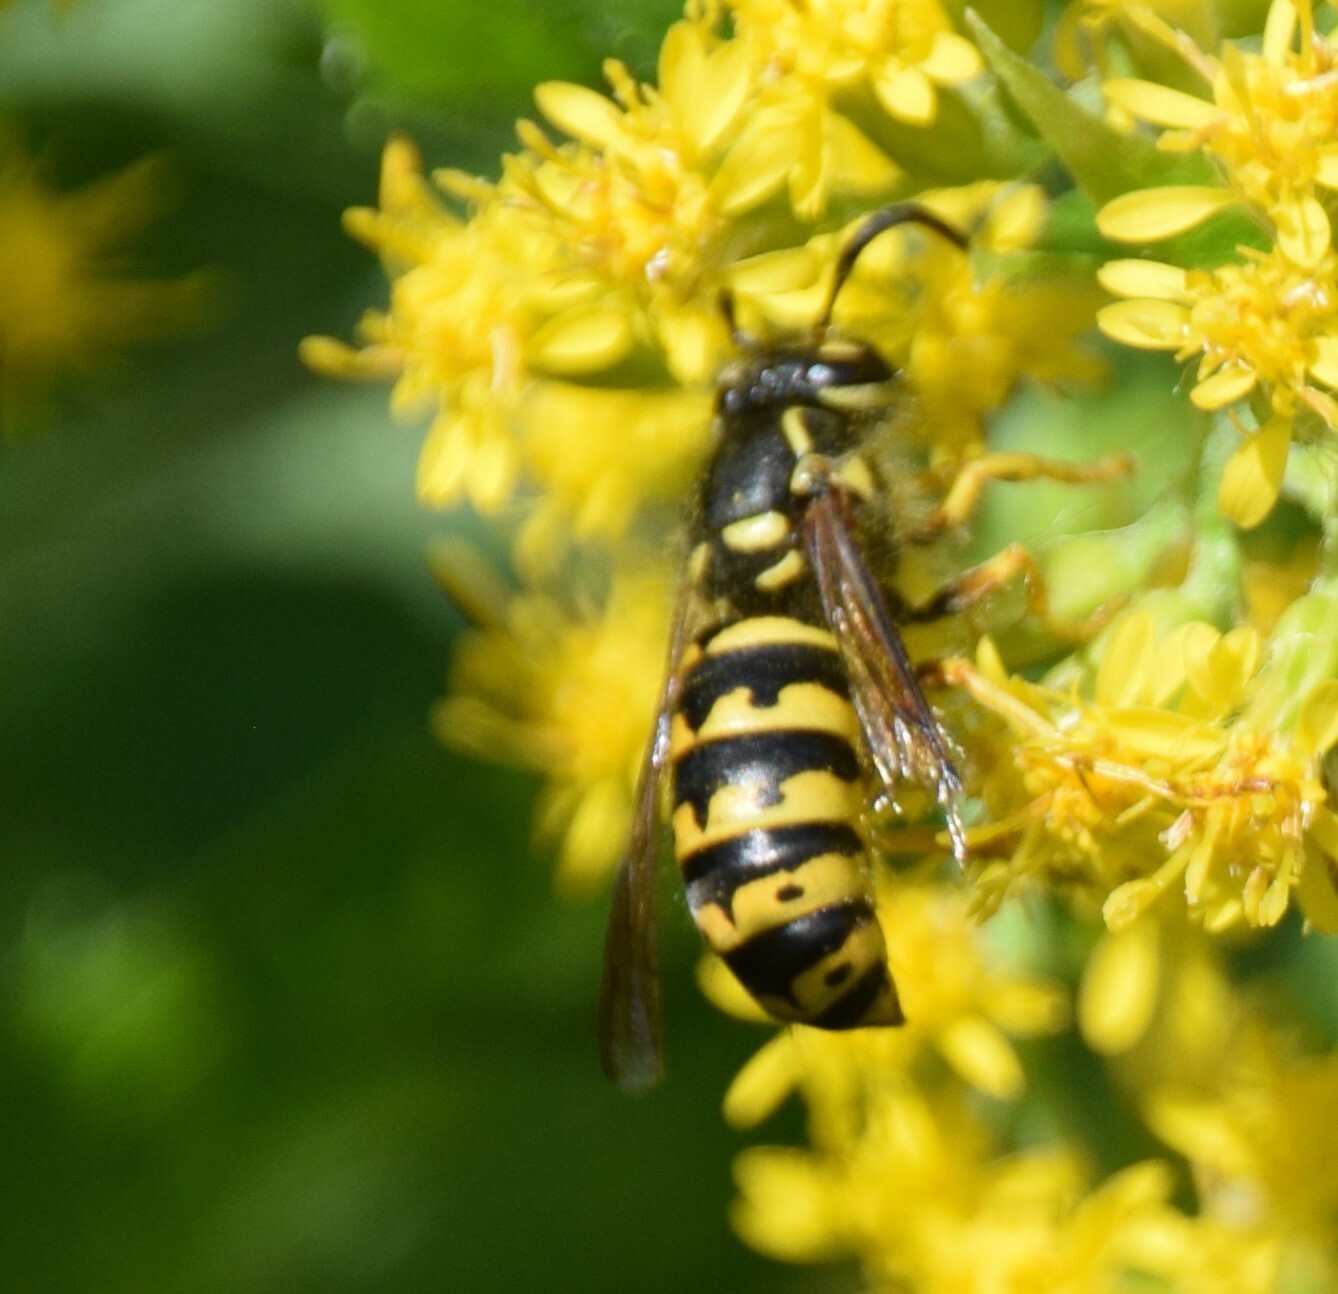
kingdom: Animalia
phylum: Arthropoda
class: Insecta
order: Hymenoptera
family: Vespidae
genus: Dolichovespula
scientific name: Dolichovespula arenaria
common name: Aerial yellowjacket
